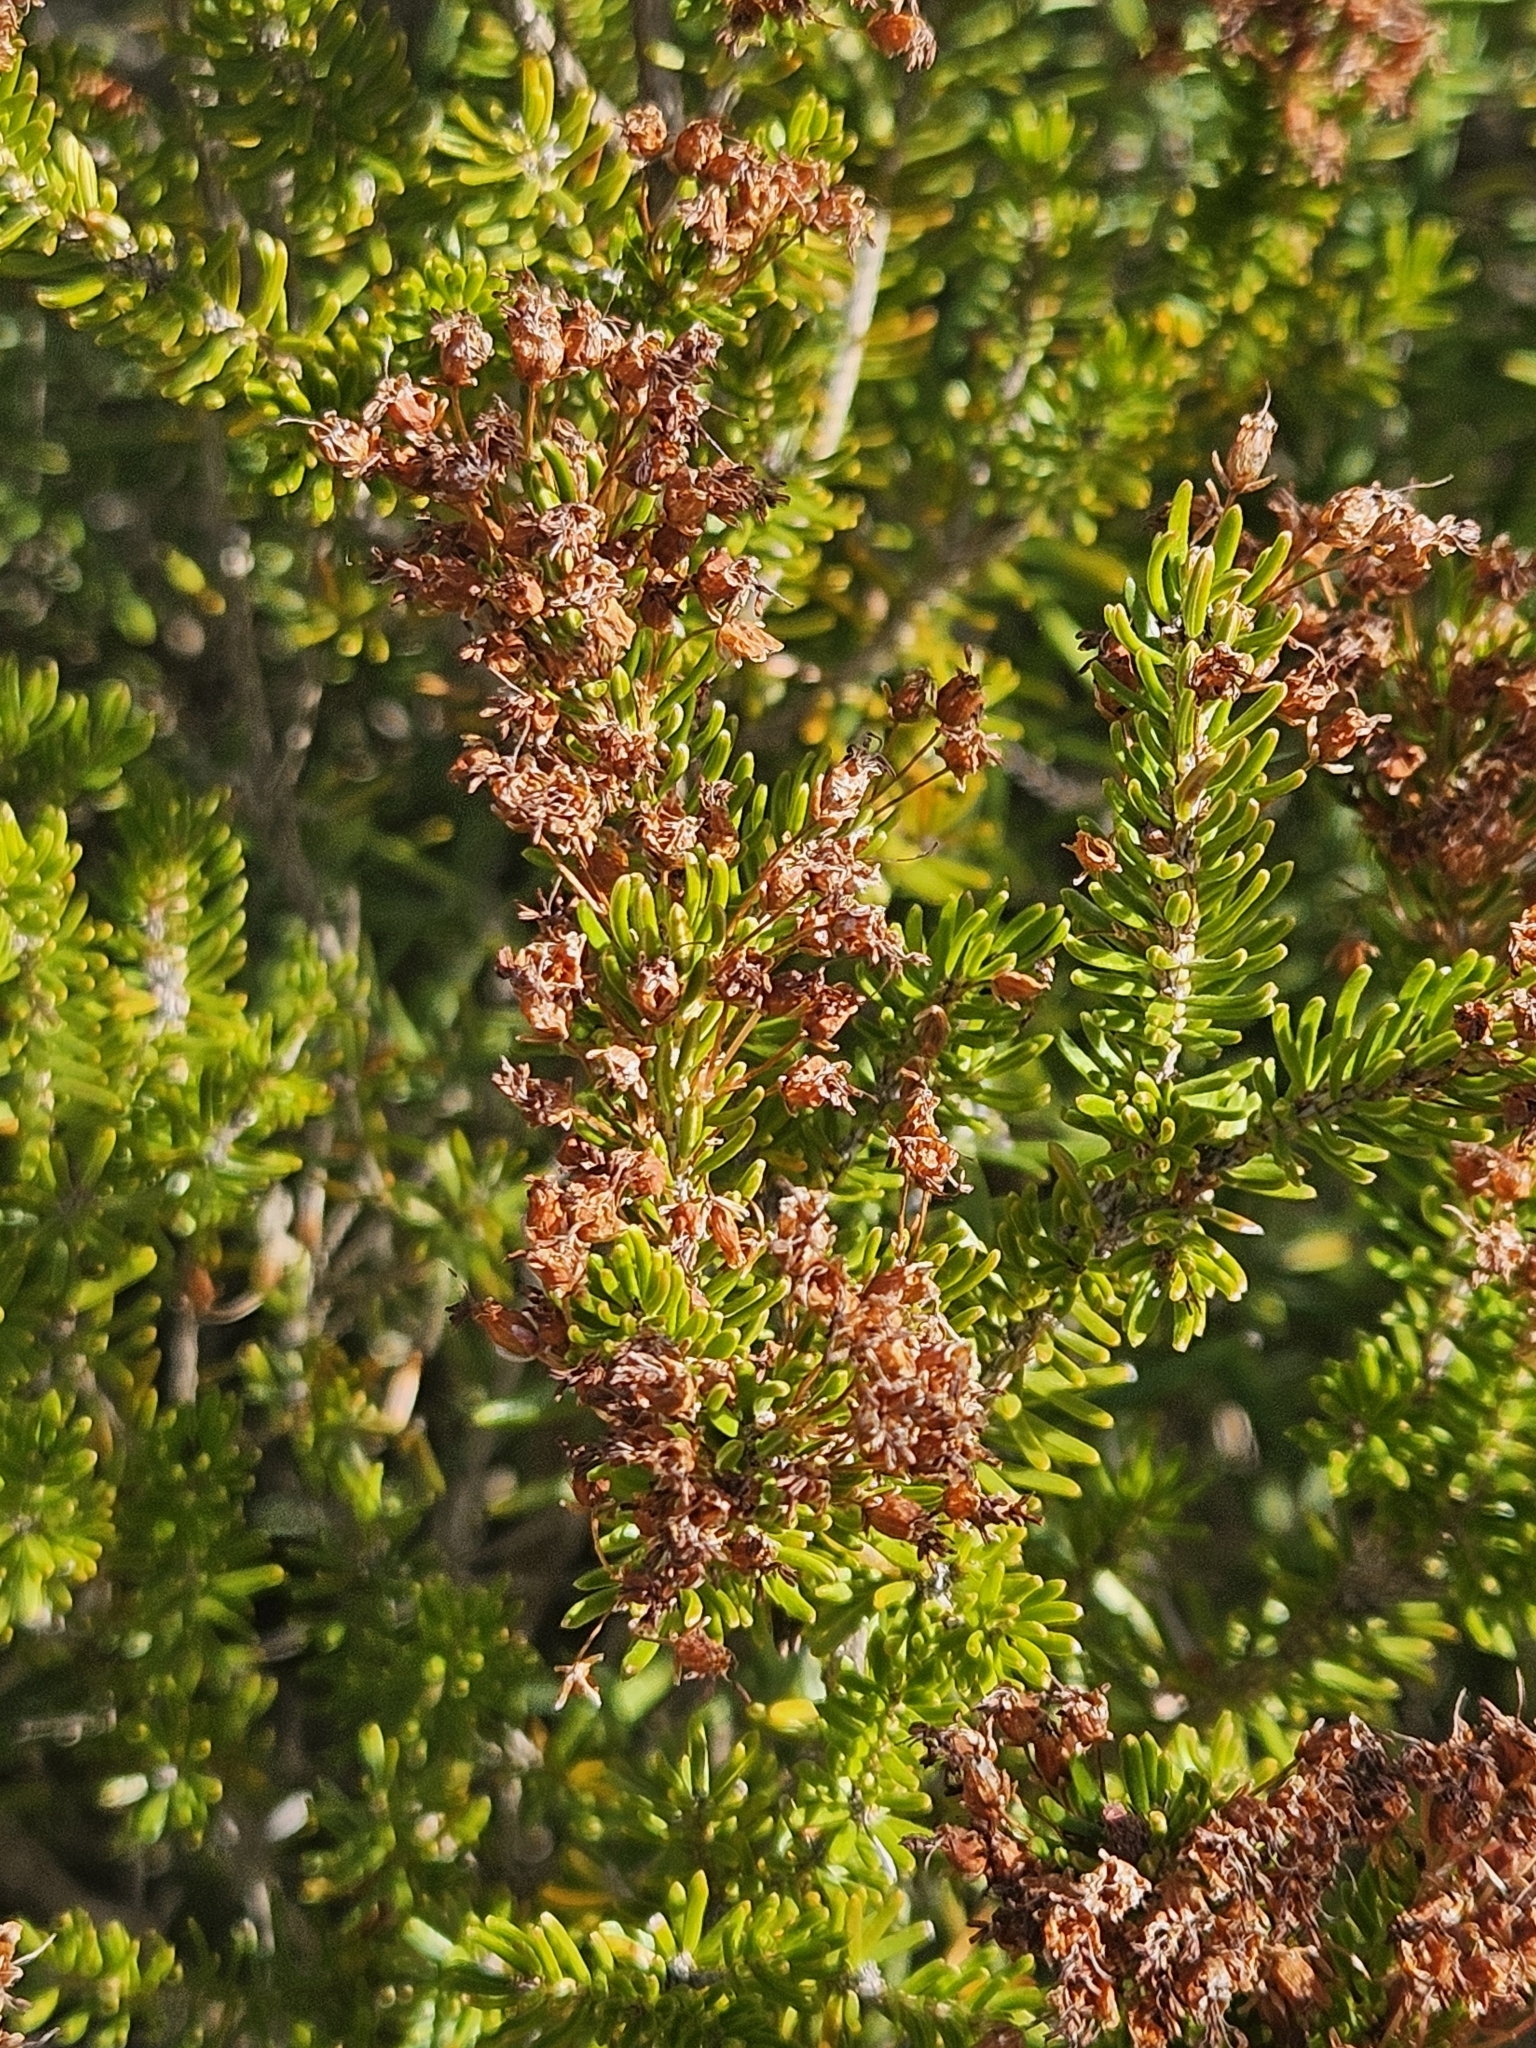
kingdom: Plantae
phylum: Tracheophyta
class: Magnoliopsida
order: Ericales
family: Ericaceae
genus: Erica
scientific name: Erica multiflora
